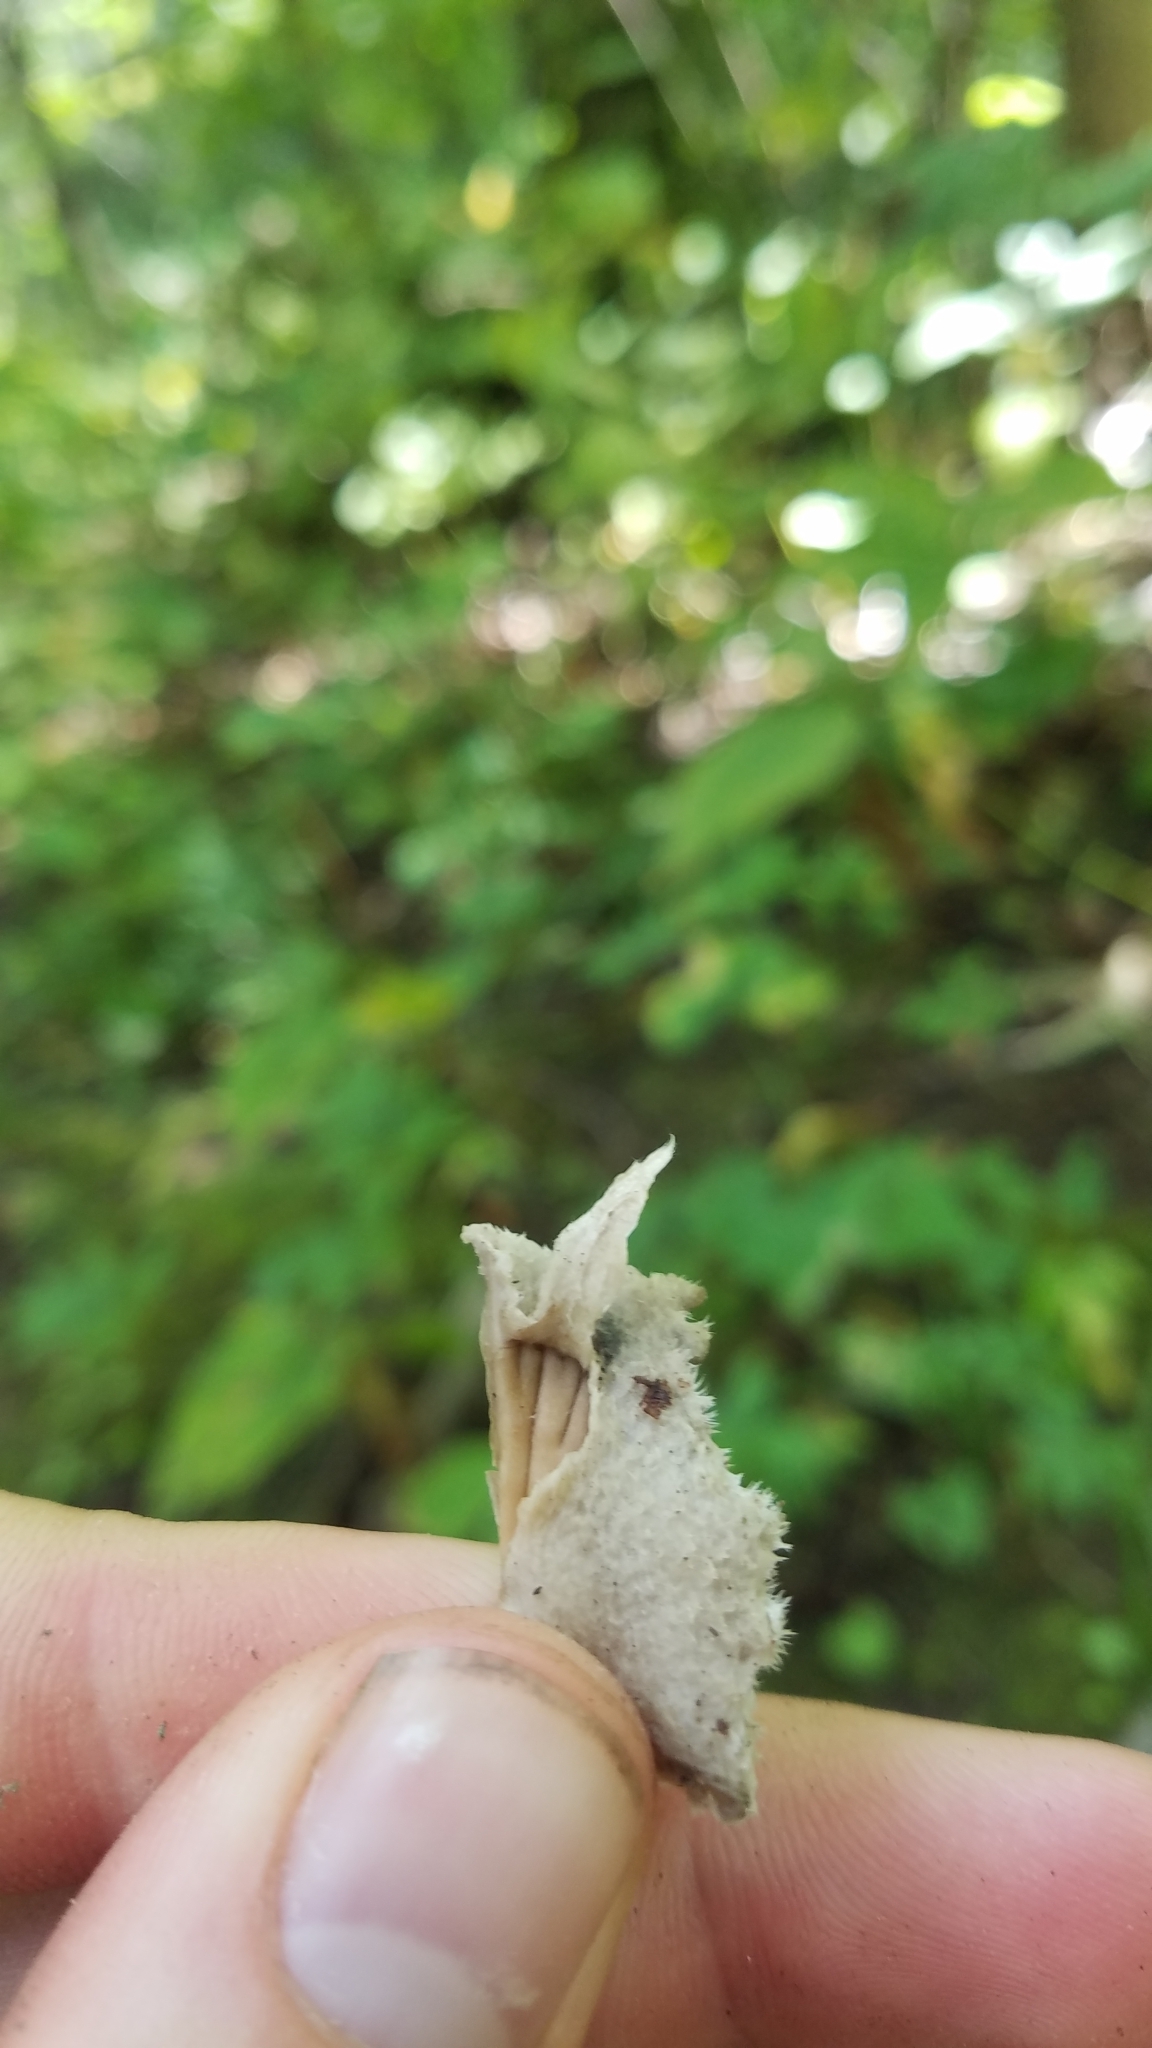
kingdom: Fungi
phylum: Basidiomycota
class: Agaricomycetes
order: Agaricales
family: Schizophyllaceae
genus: Schizophyllum
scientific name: Schizophyllum commune
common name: Common porecrust
